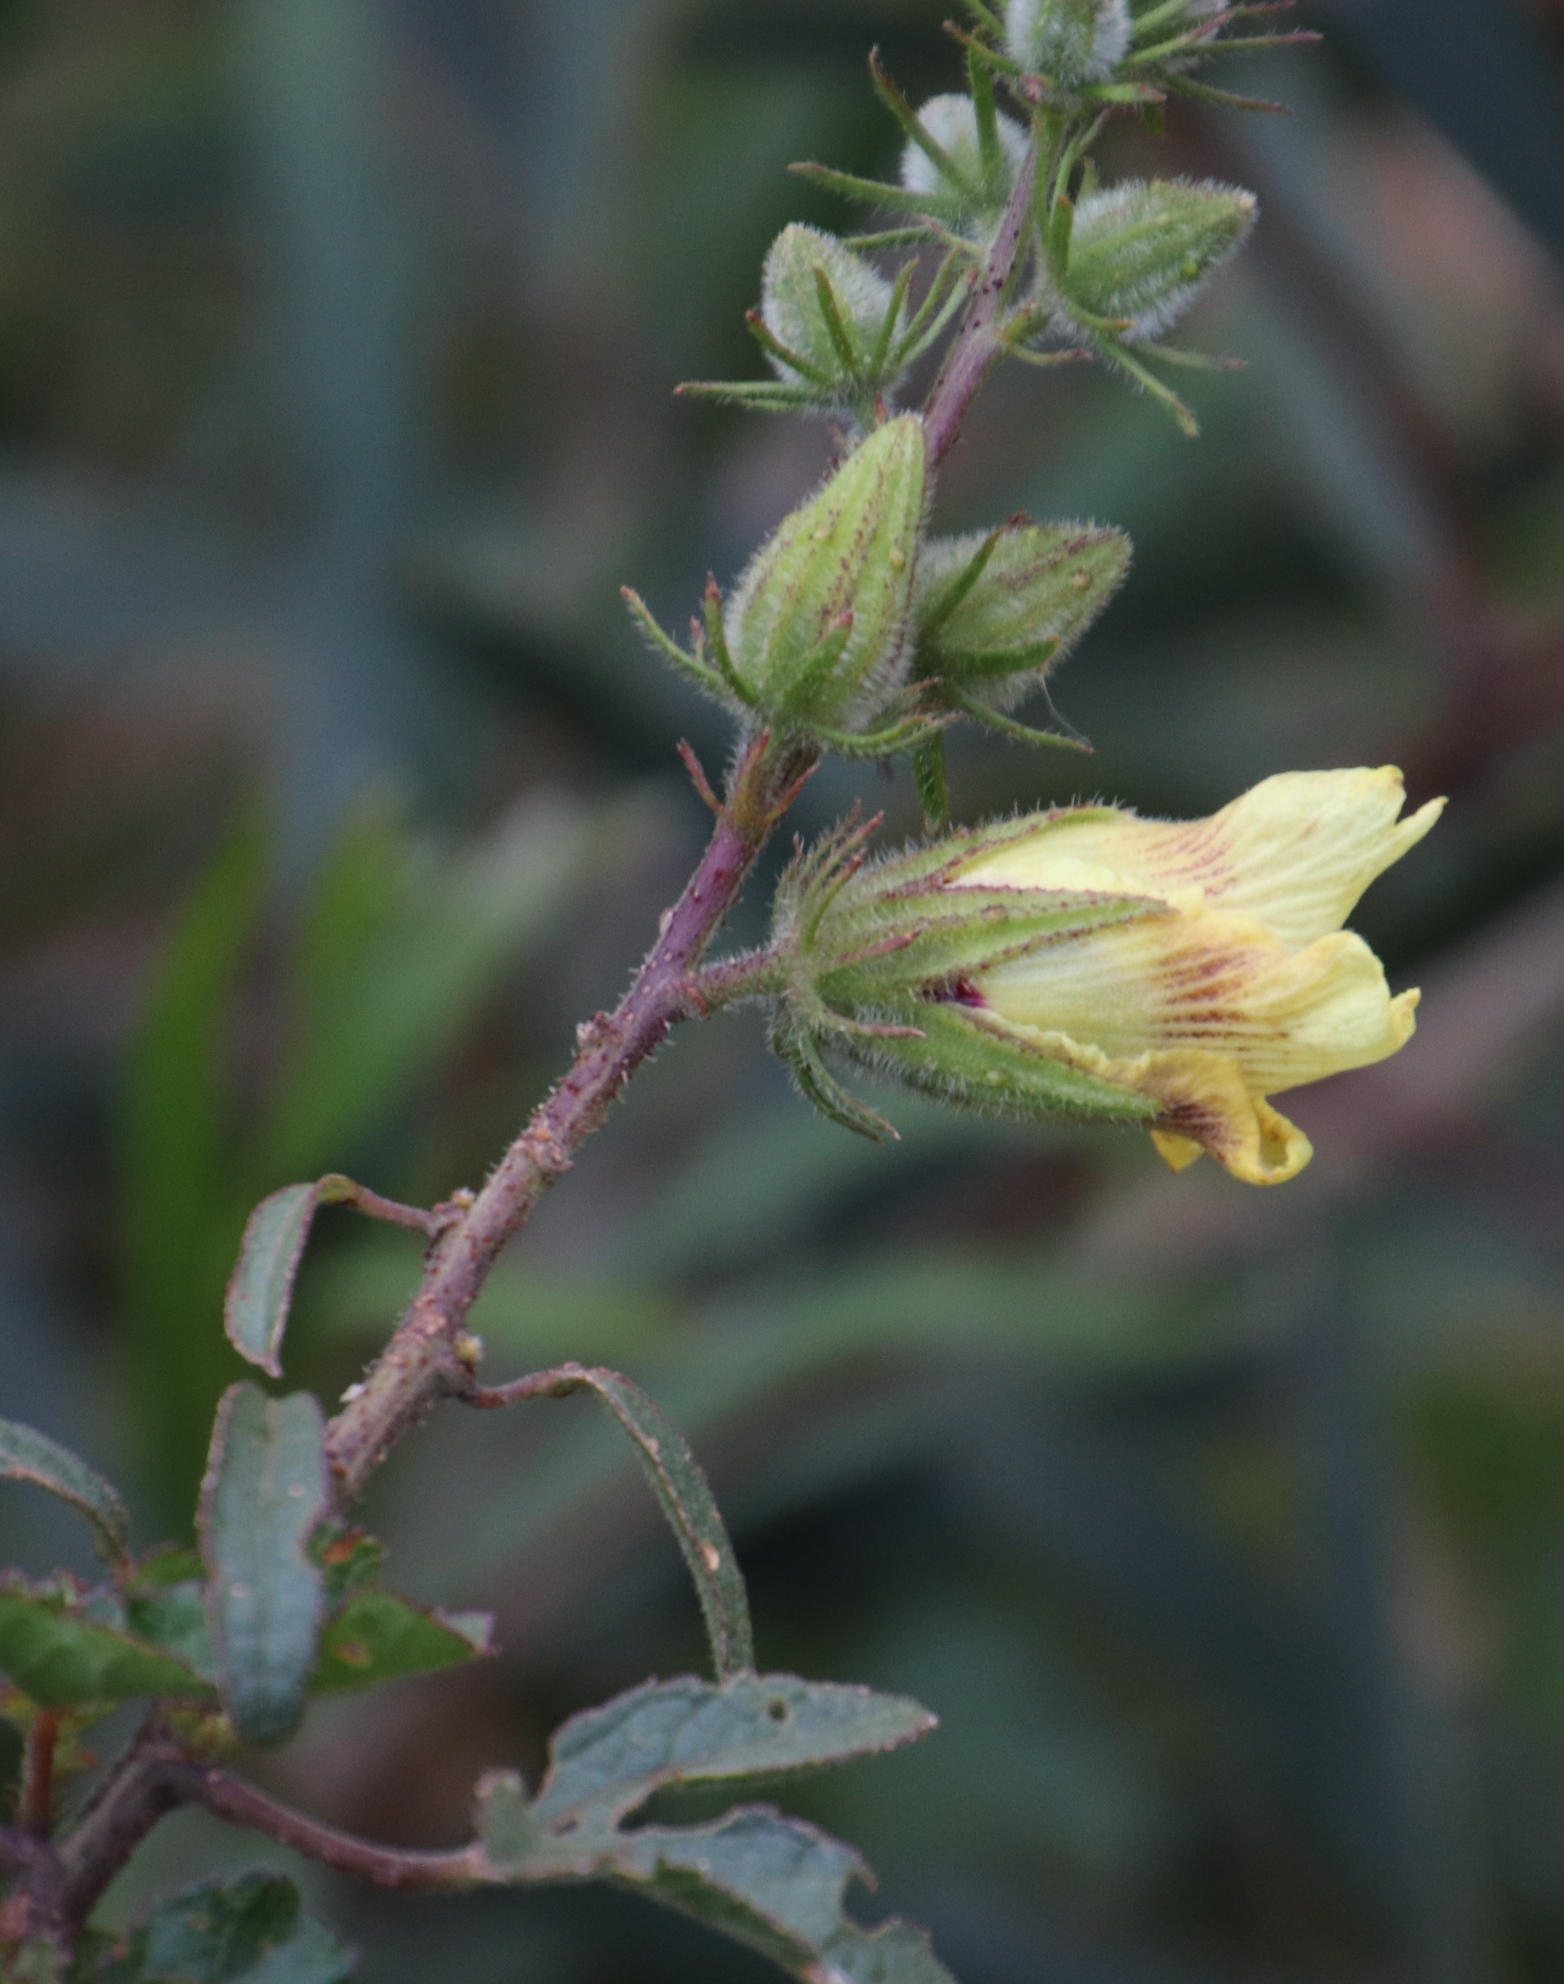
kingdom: Plantae
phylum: Tracheophyta
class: Magnoliopsida
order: Malvales
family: Malvaceae
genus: Hibiscus
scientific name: Hibiscus diversifolius
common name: Cape hibiscus
